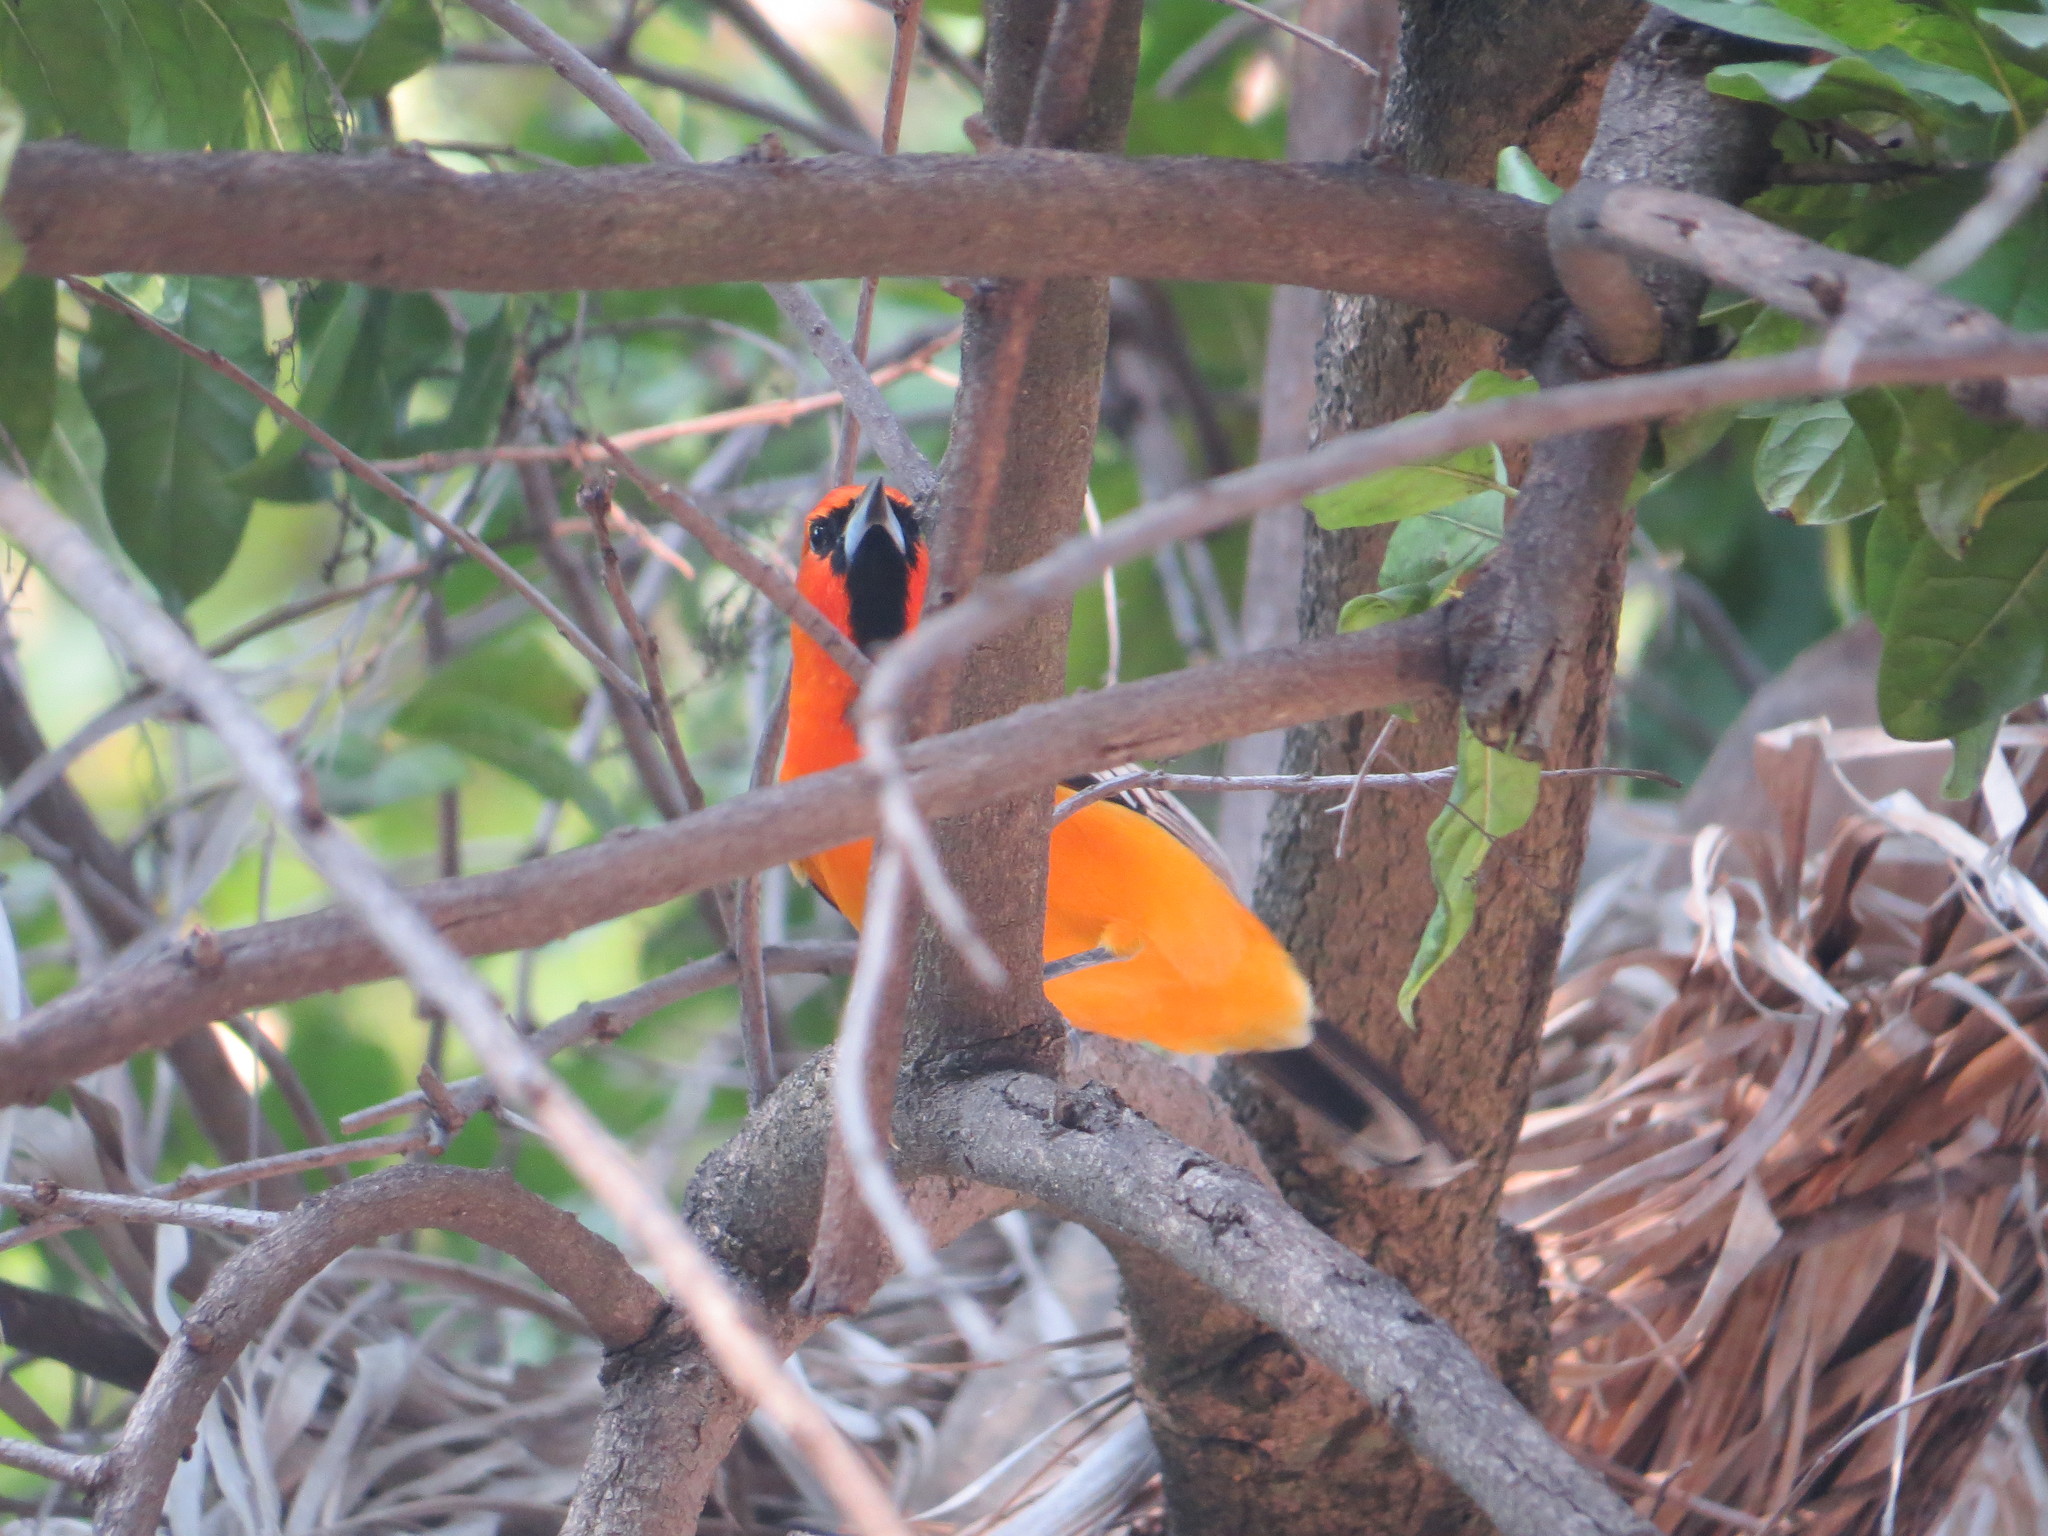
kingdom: Animalia
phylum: Chordata
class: Aves
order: Passeriformes
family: Icteridae
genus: Icterus
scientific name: Icterus pustulatus
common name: Streak-backed oriole
